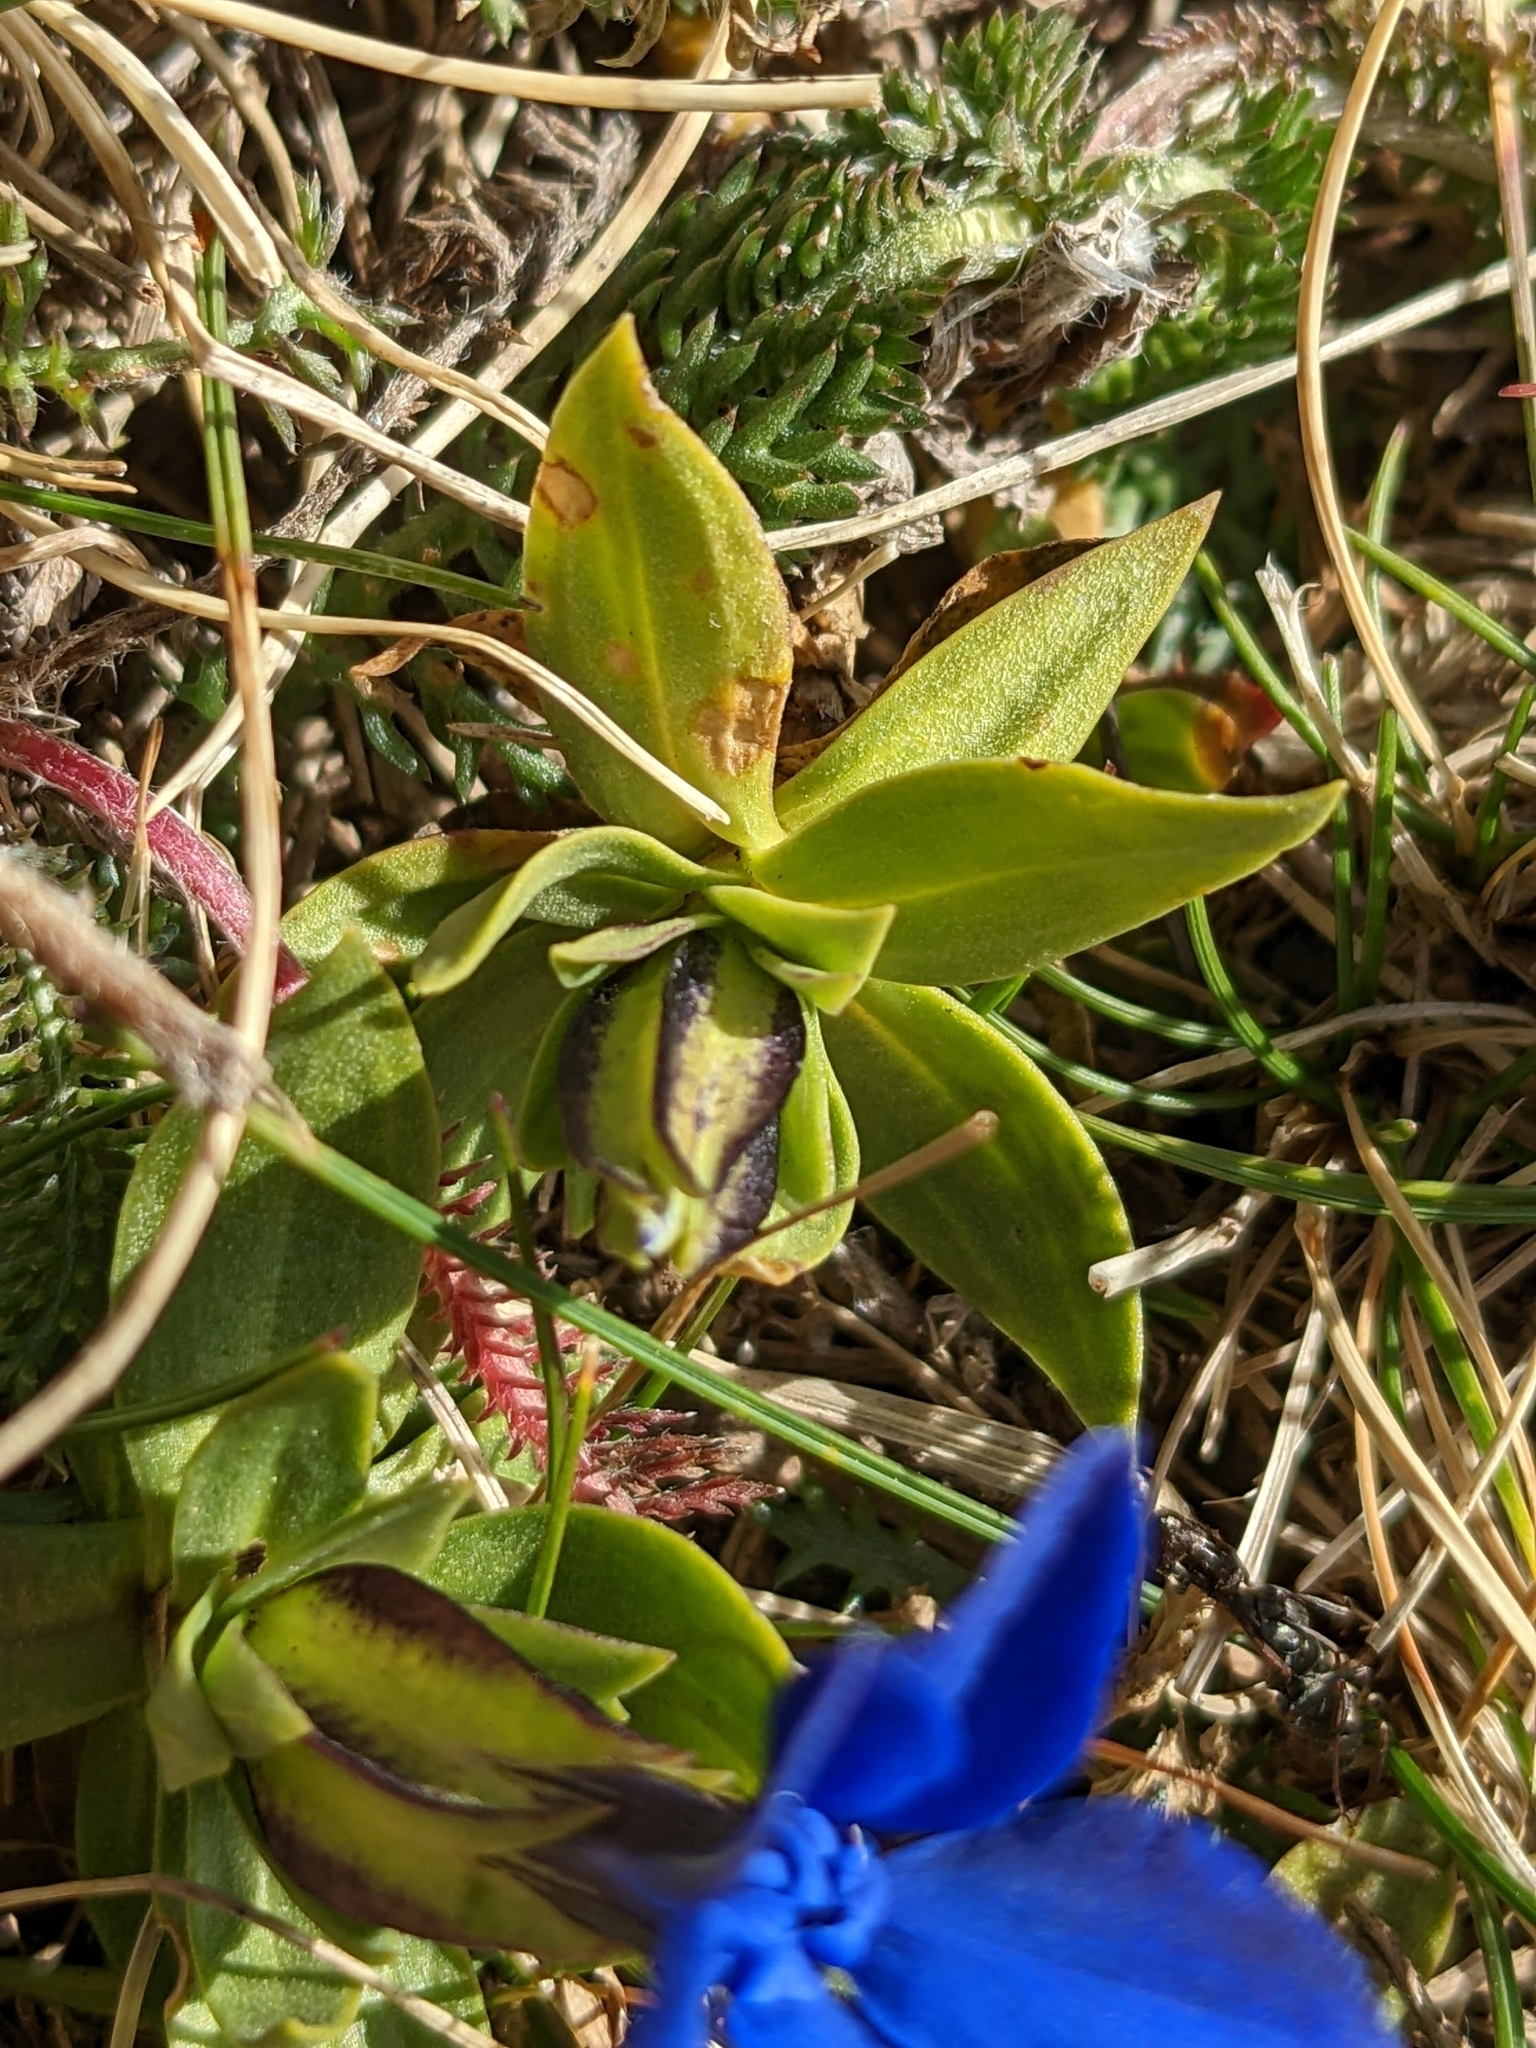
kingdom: Plantae
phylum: Tracheophyta
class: Magnoliopsida
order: Gentianales
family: Gentianaceae
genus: Gentiana
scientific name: Gentiana verna
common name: Spring gentian
